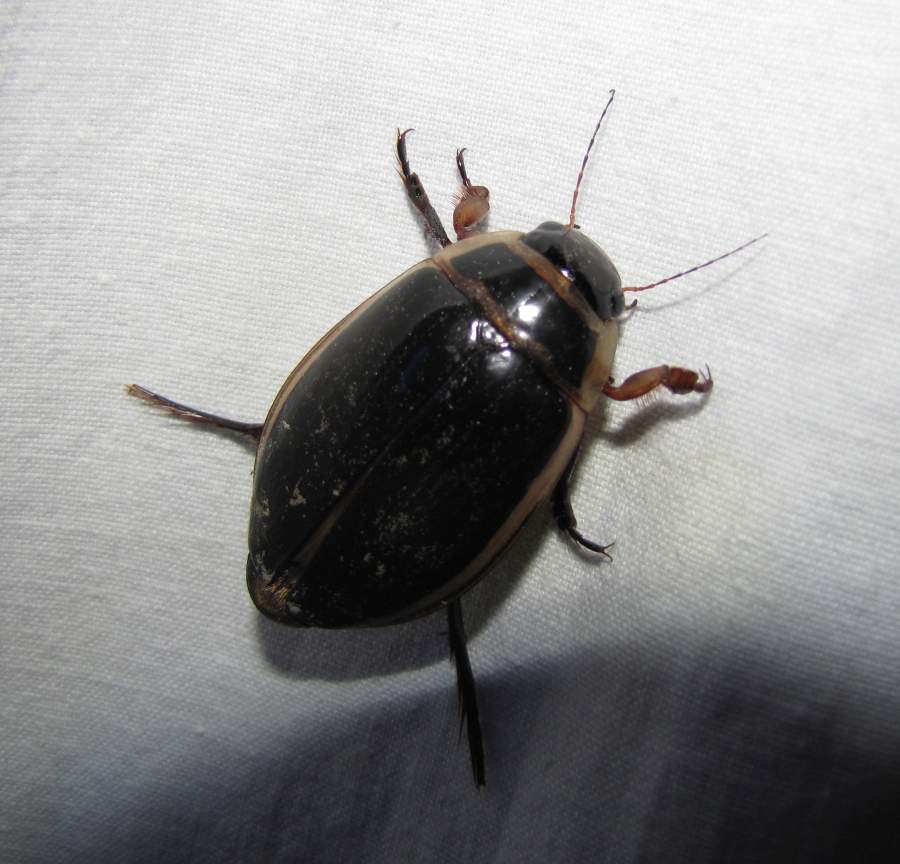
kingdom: Animalia
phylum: Arthropoda
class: Insecta
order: Coleoptera
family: Dytiscidae
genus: Dytiscus
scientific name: Dytiscus
